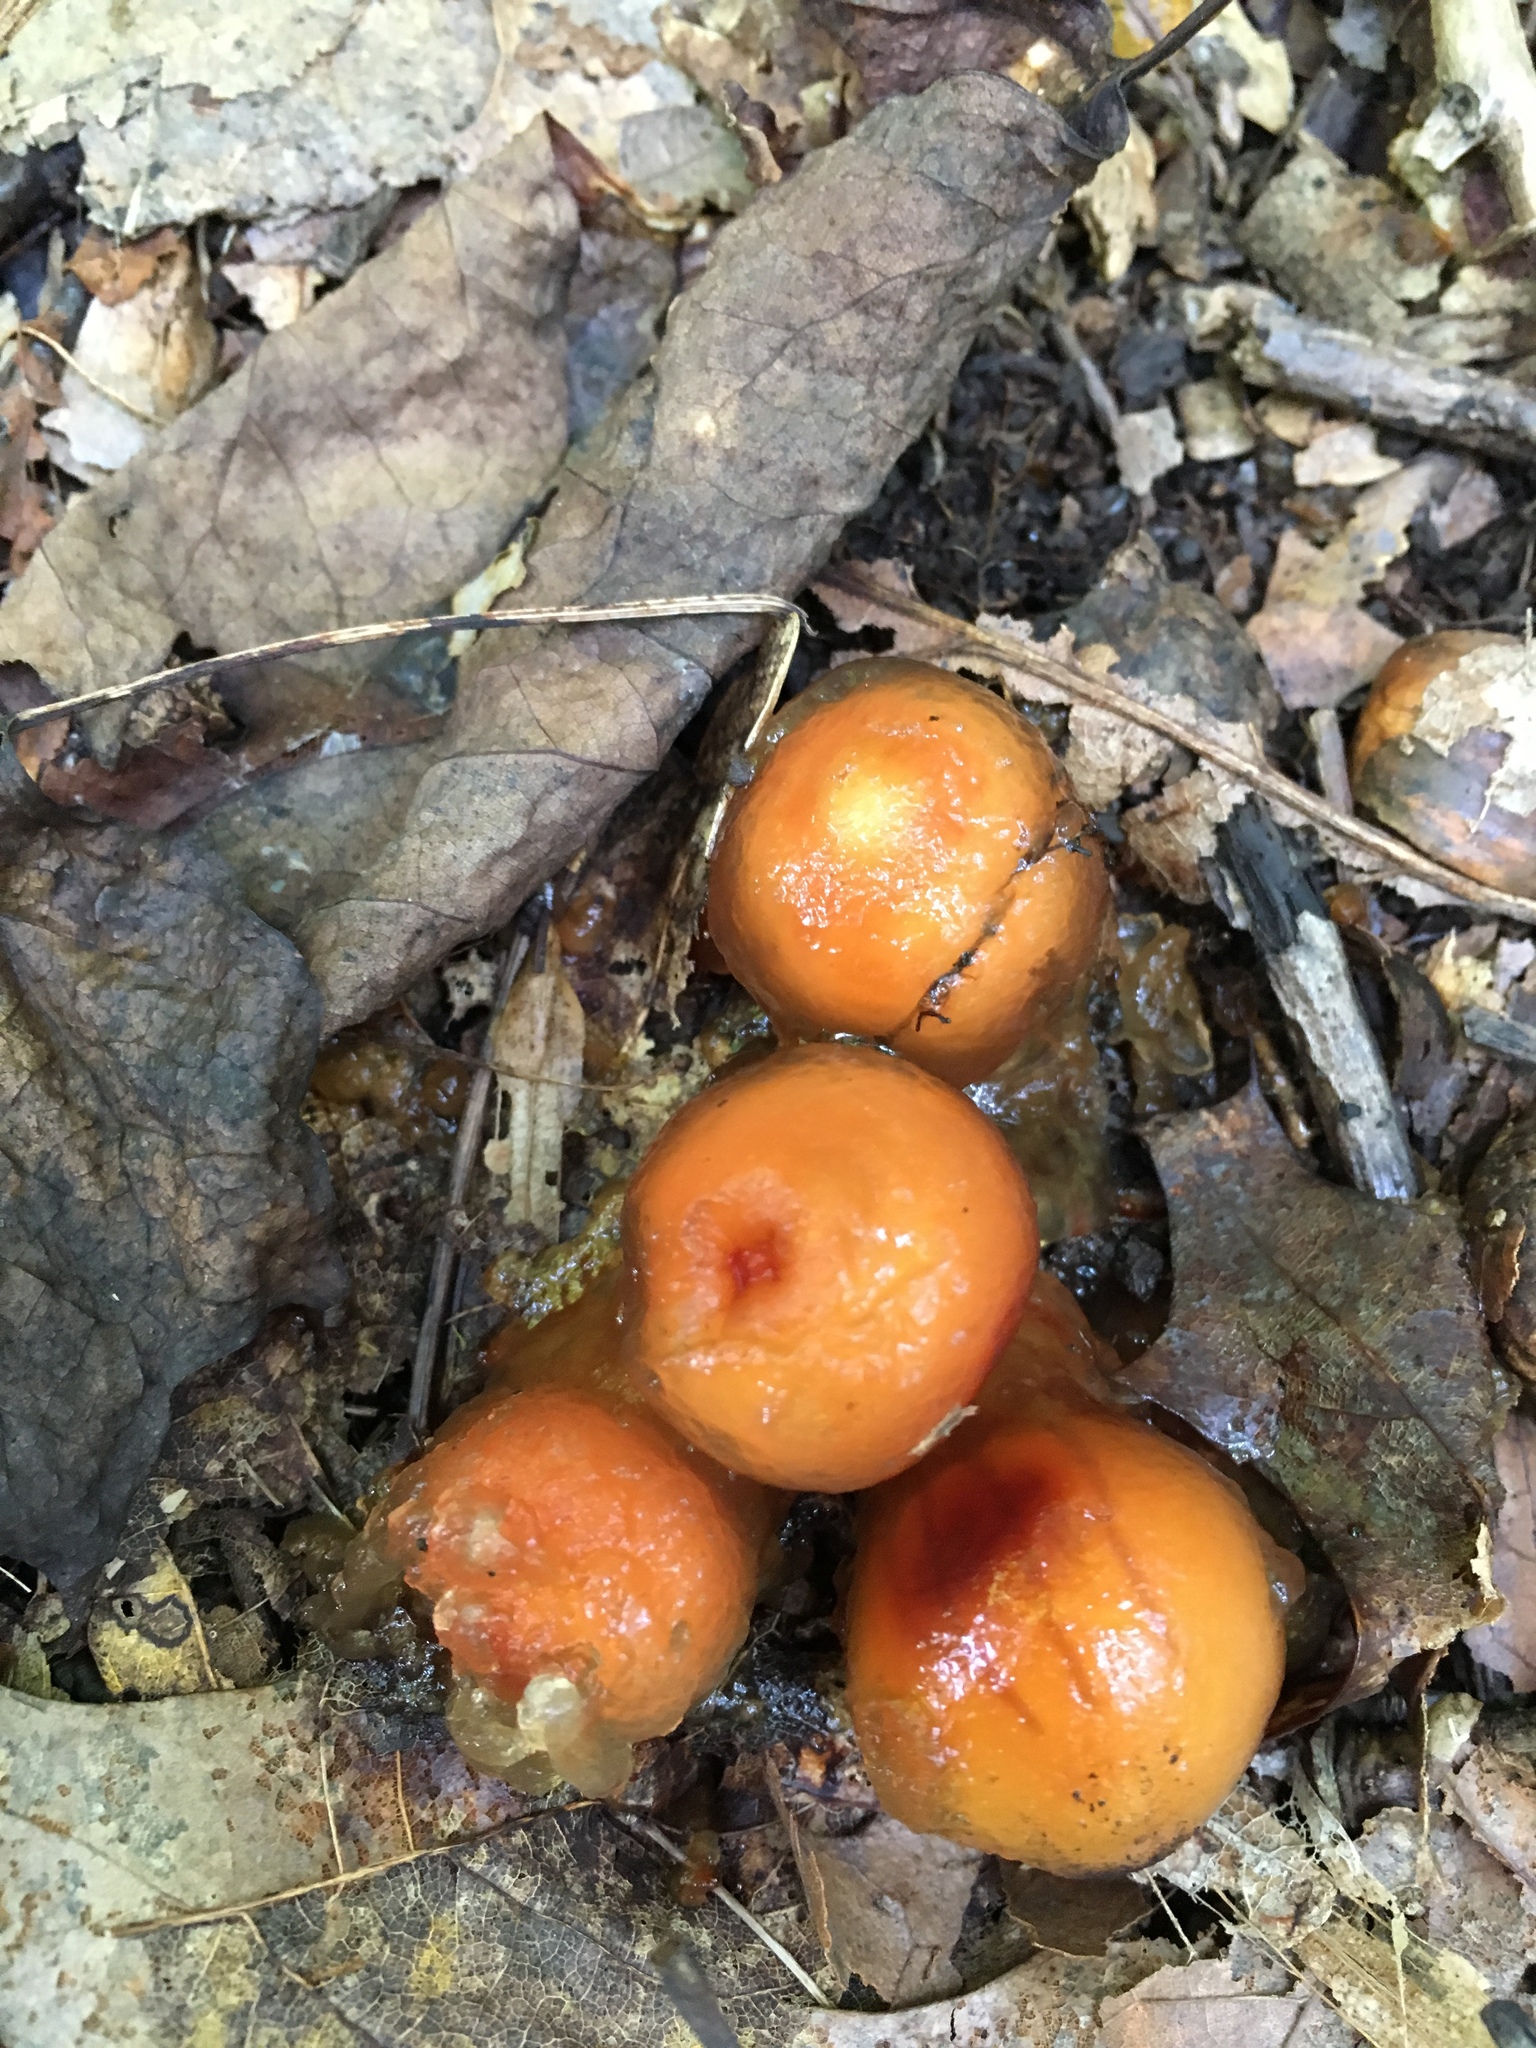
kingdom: Fungi
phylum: Basidiomycota
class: Agaricomycetes
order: Boletales
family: Calostomataceae
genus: Calostoma
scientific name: Calostoma cinnabarinum
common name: Stalked puffball-in-aspic
